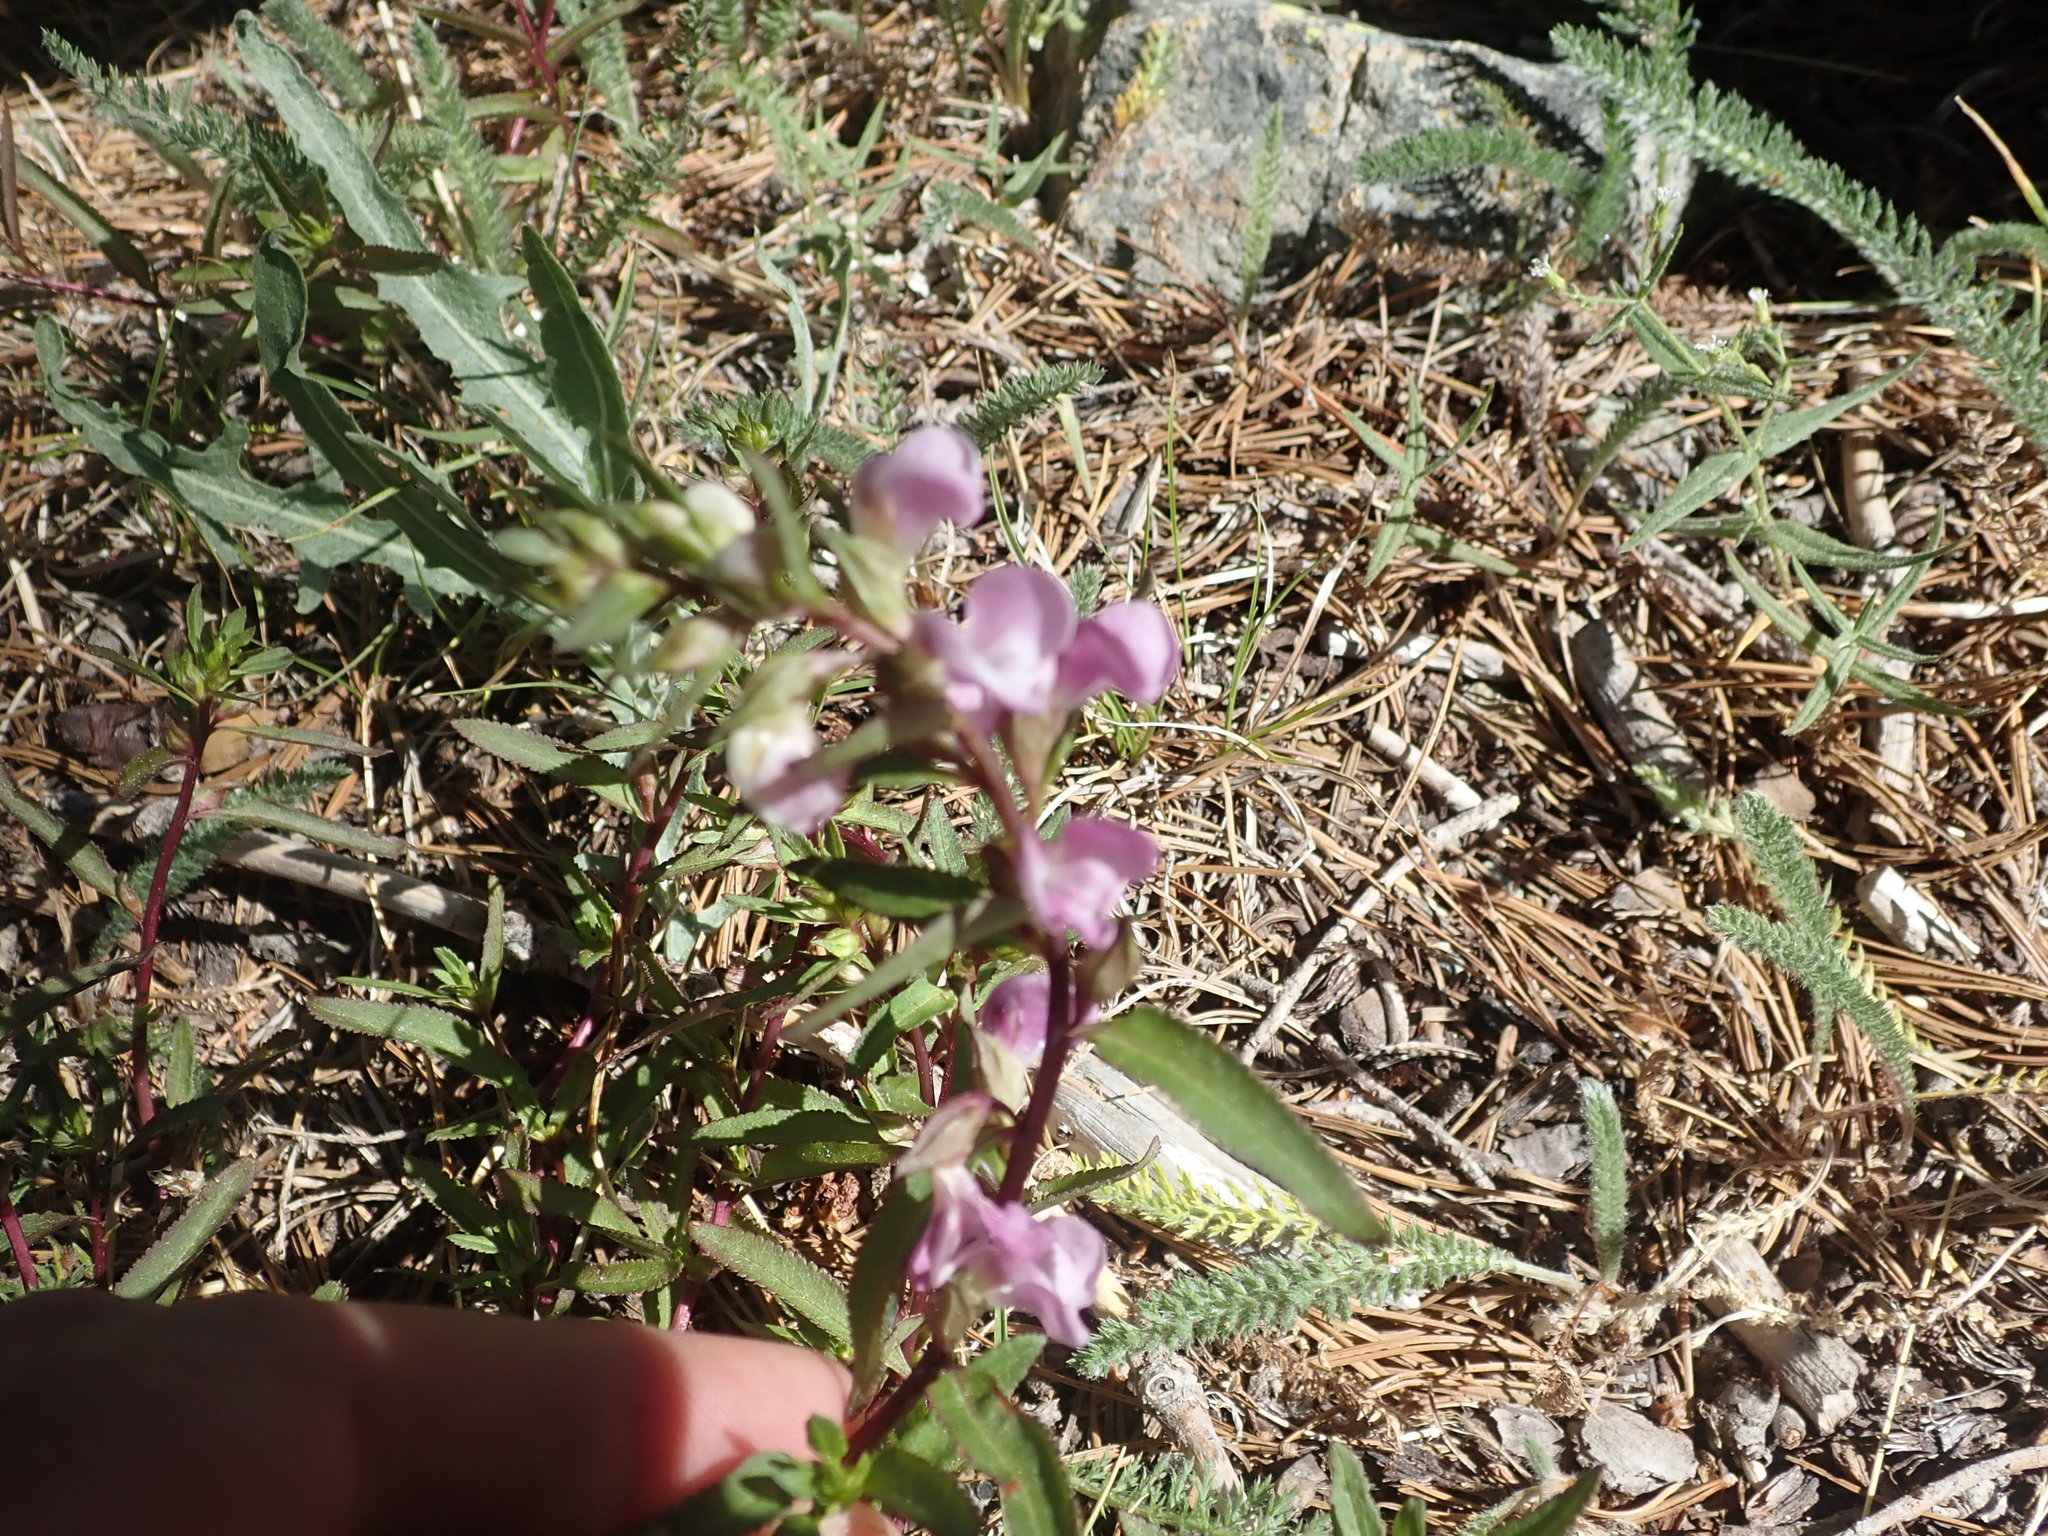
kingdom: Plantae
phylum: Tracheophyta
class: Magnoliopsida
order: Lamiales
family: Orobanchaceae
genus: Pedicularis
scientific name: Pedicularis racemosa
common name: Leafy lousewort
